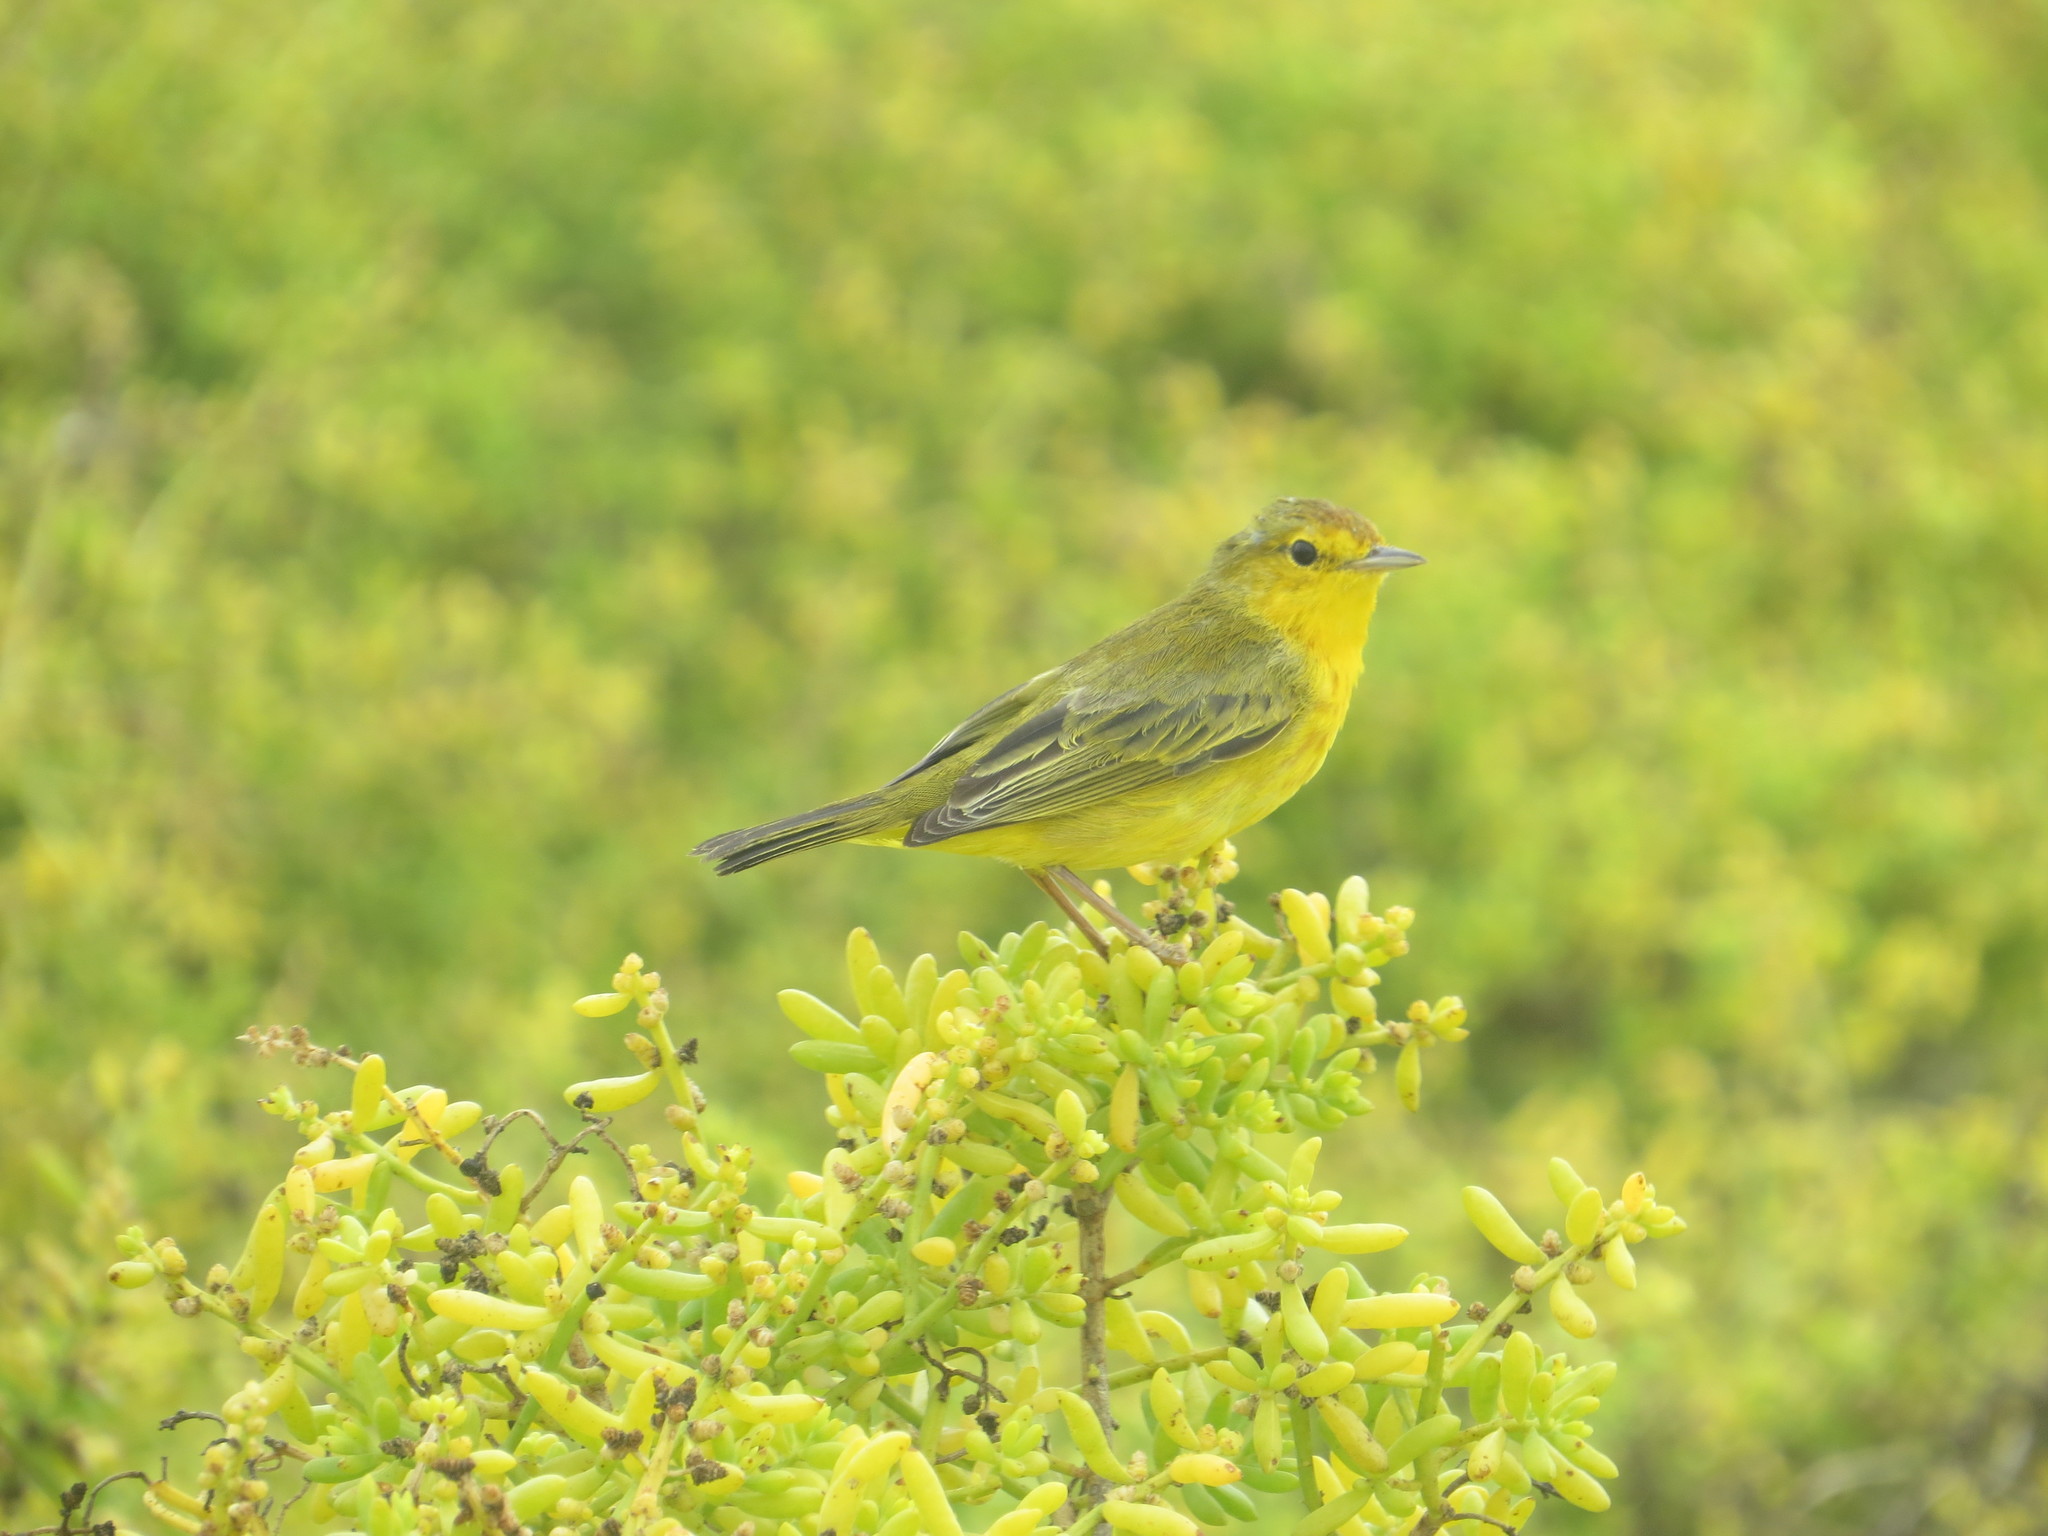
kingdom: Animalia
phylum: Chordata
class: Aves
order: Passeriformes
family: Parulidae
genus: Setophaga
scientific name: Setophaga petechia
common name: Yellow warbler
